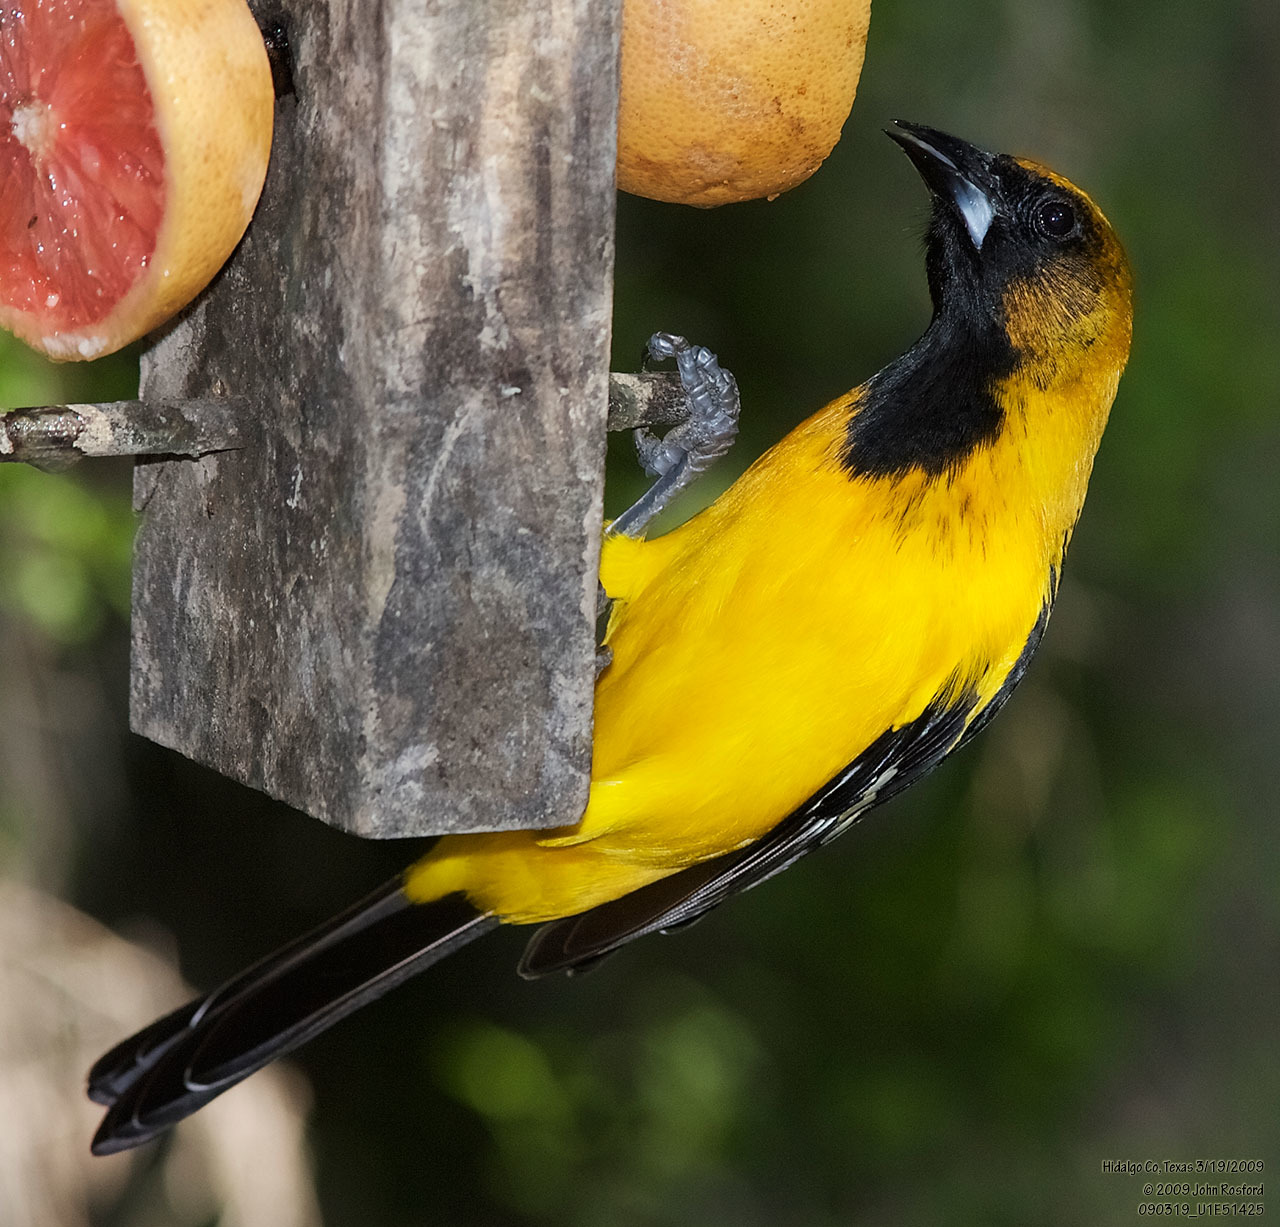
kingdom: Animalia
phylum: Chordata
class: Aves
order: Passeriformes
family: Icteridae
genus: Icterus
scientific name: Icterus
